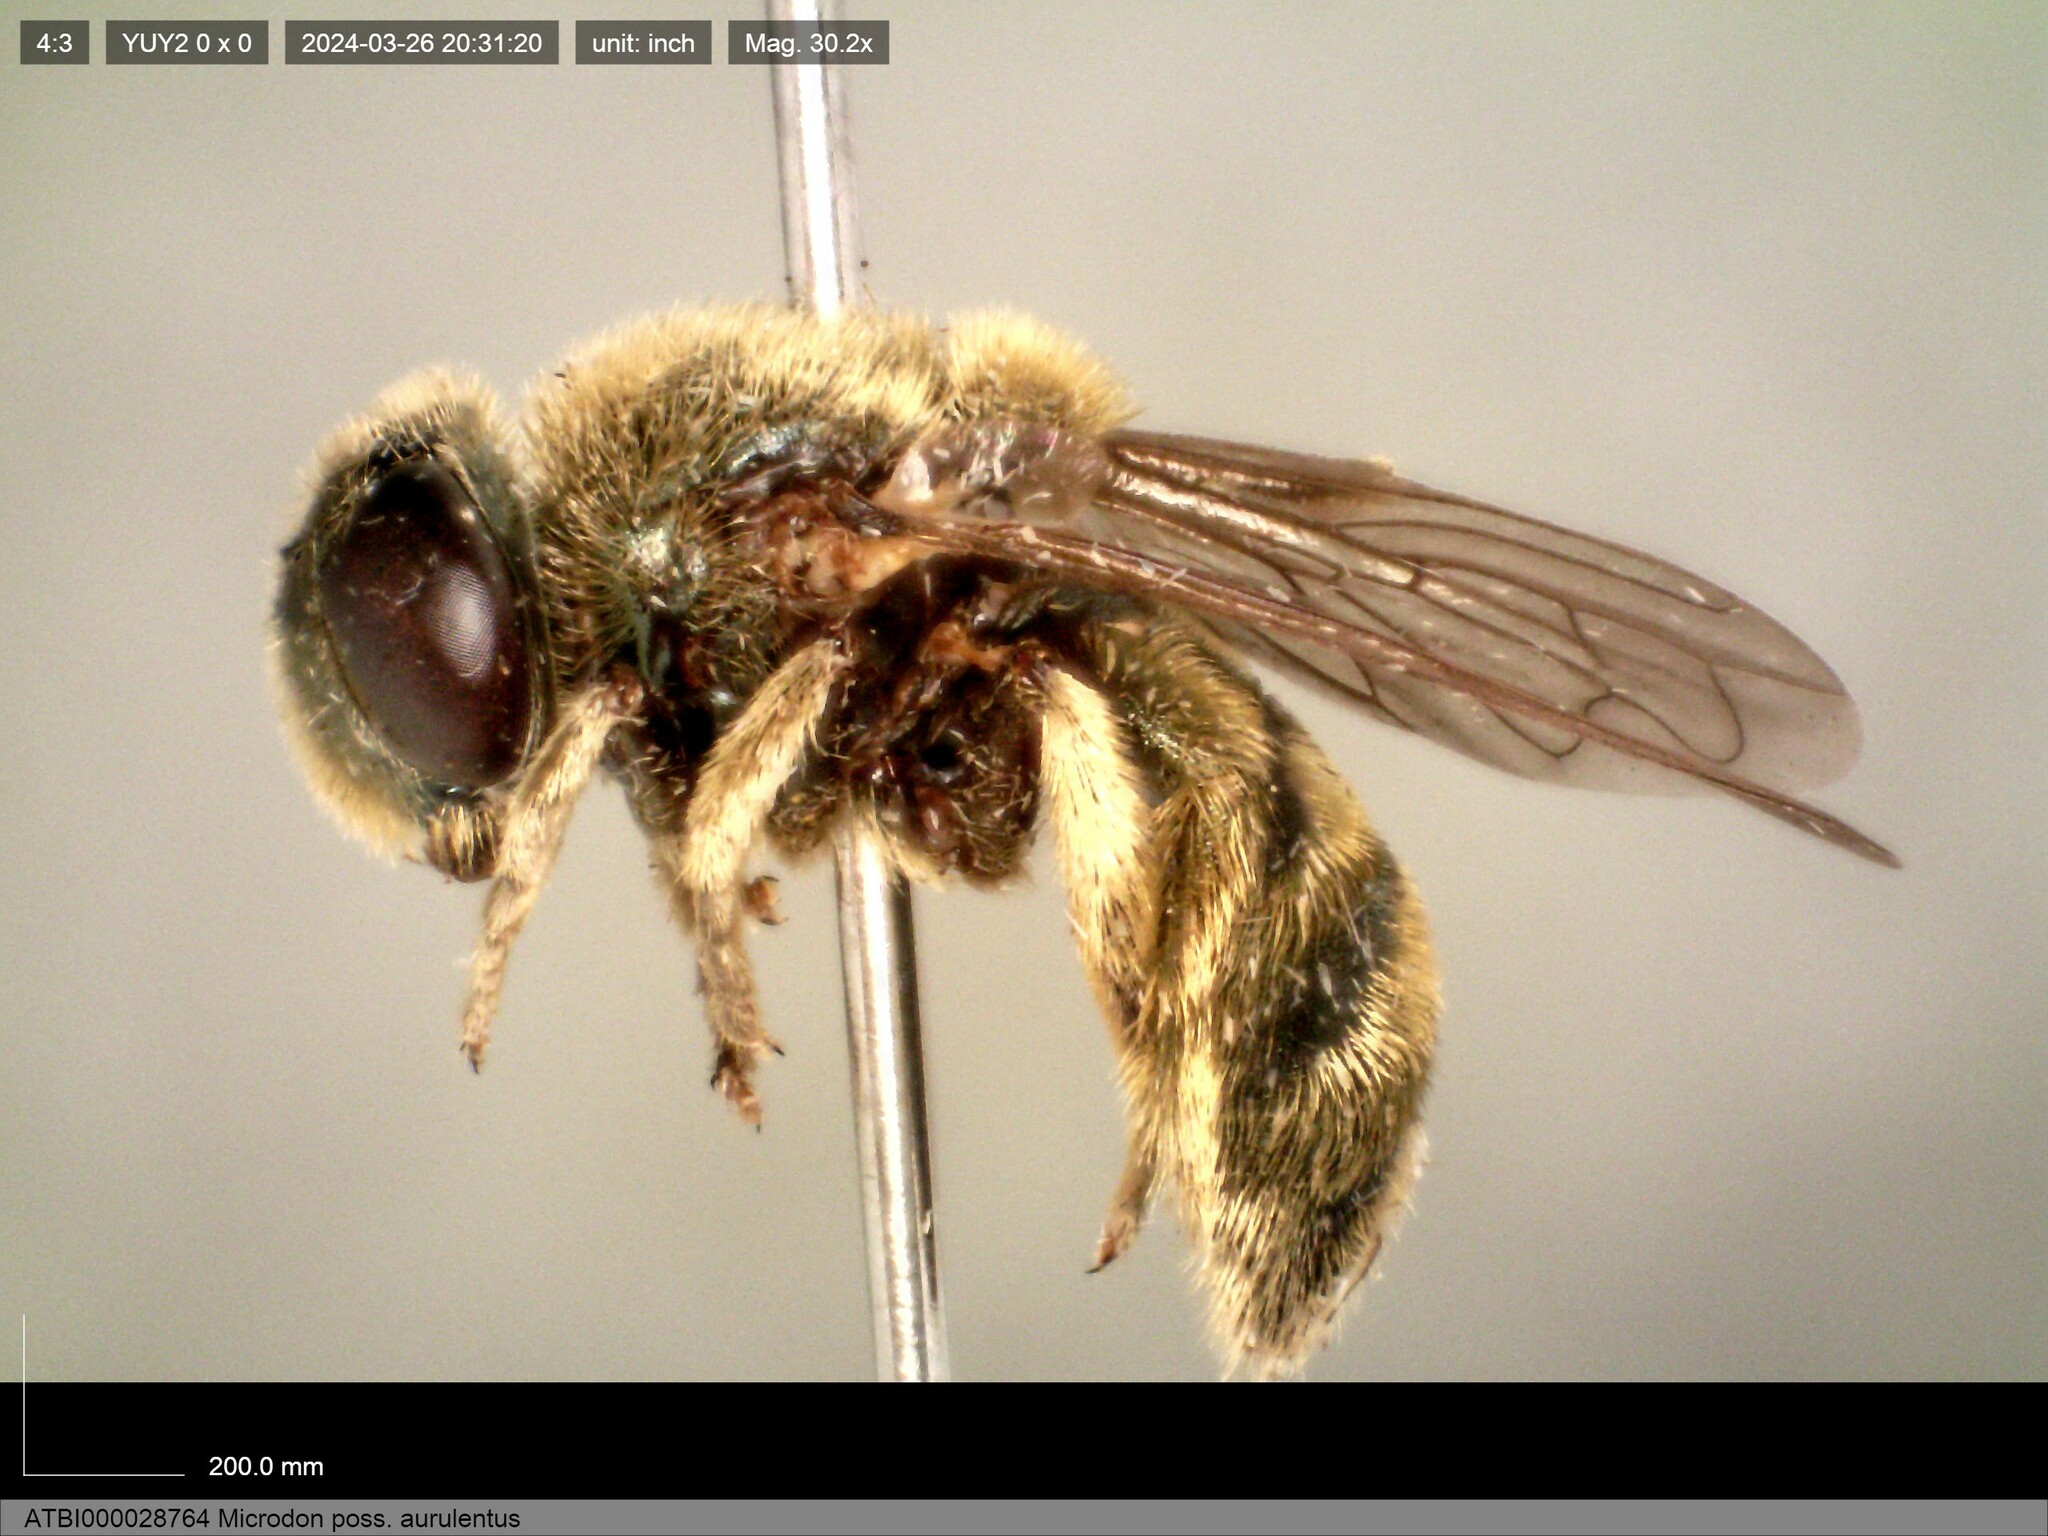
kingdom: Animalia
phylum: Arthropoda
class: Insecta
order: Diptera
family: Syrphidae
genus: Microdon
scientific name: Microdon aurulentus
